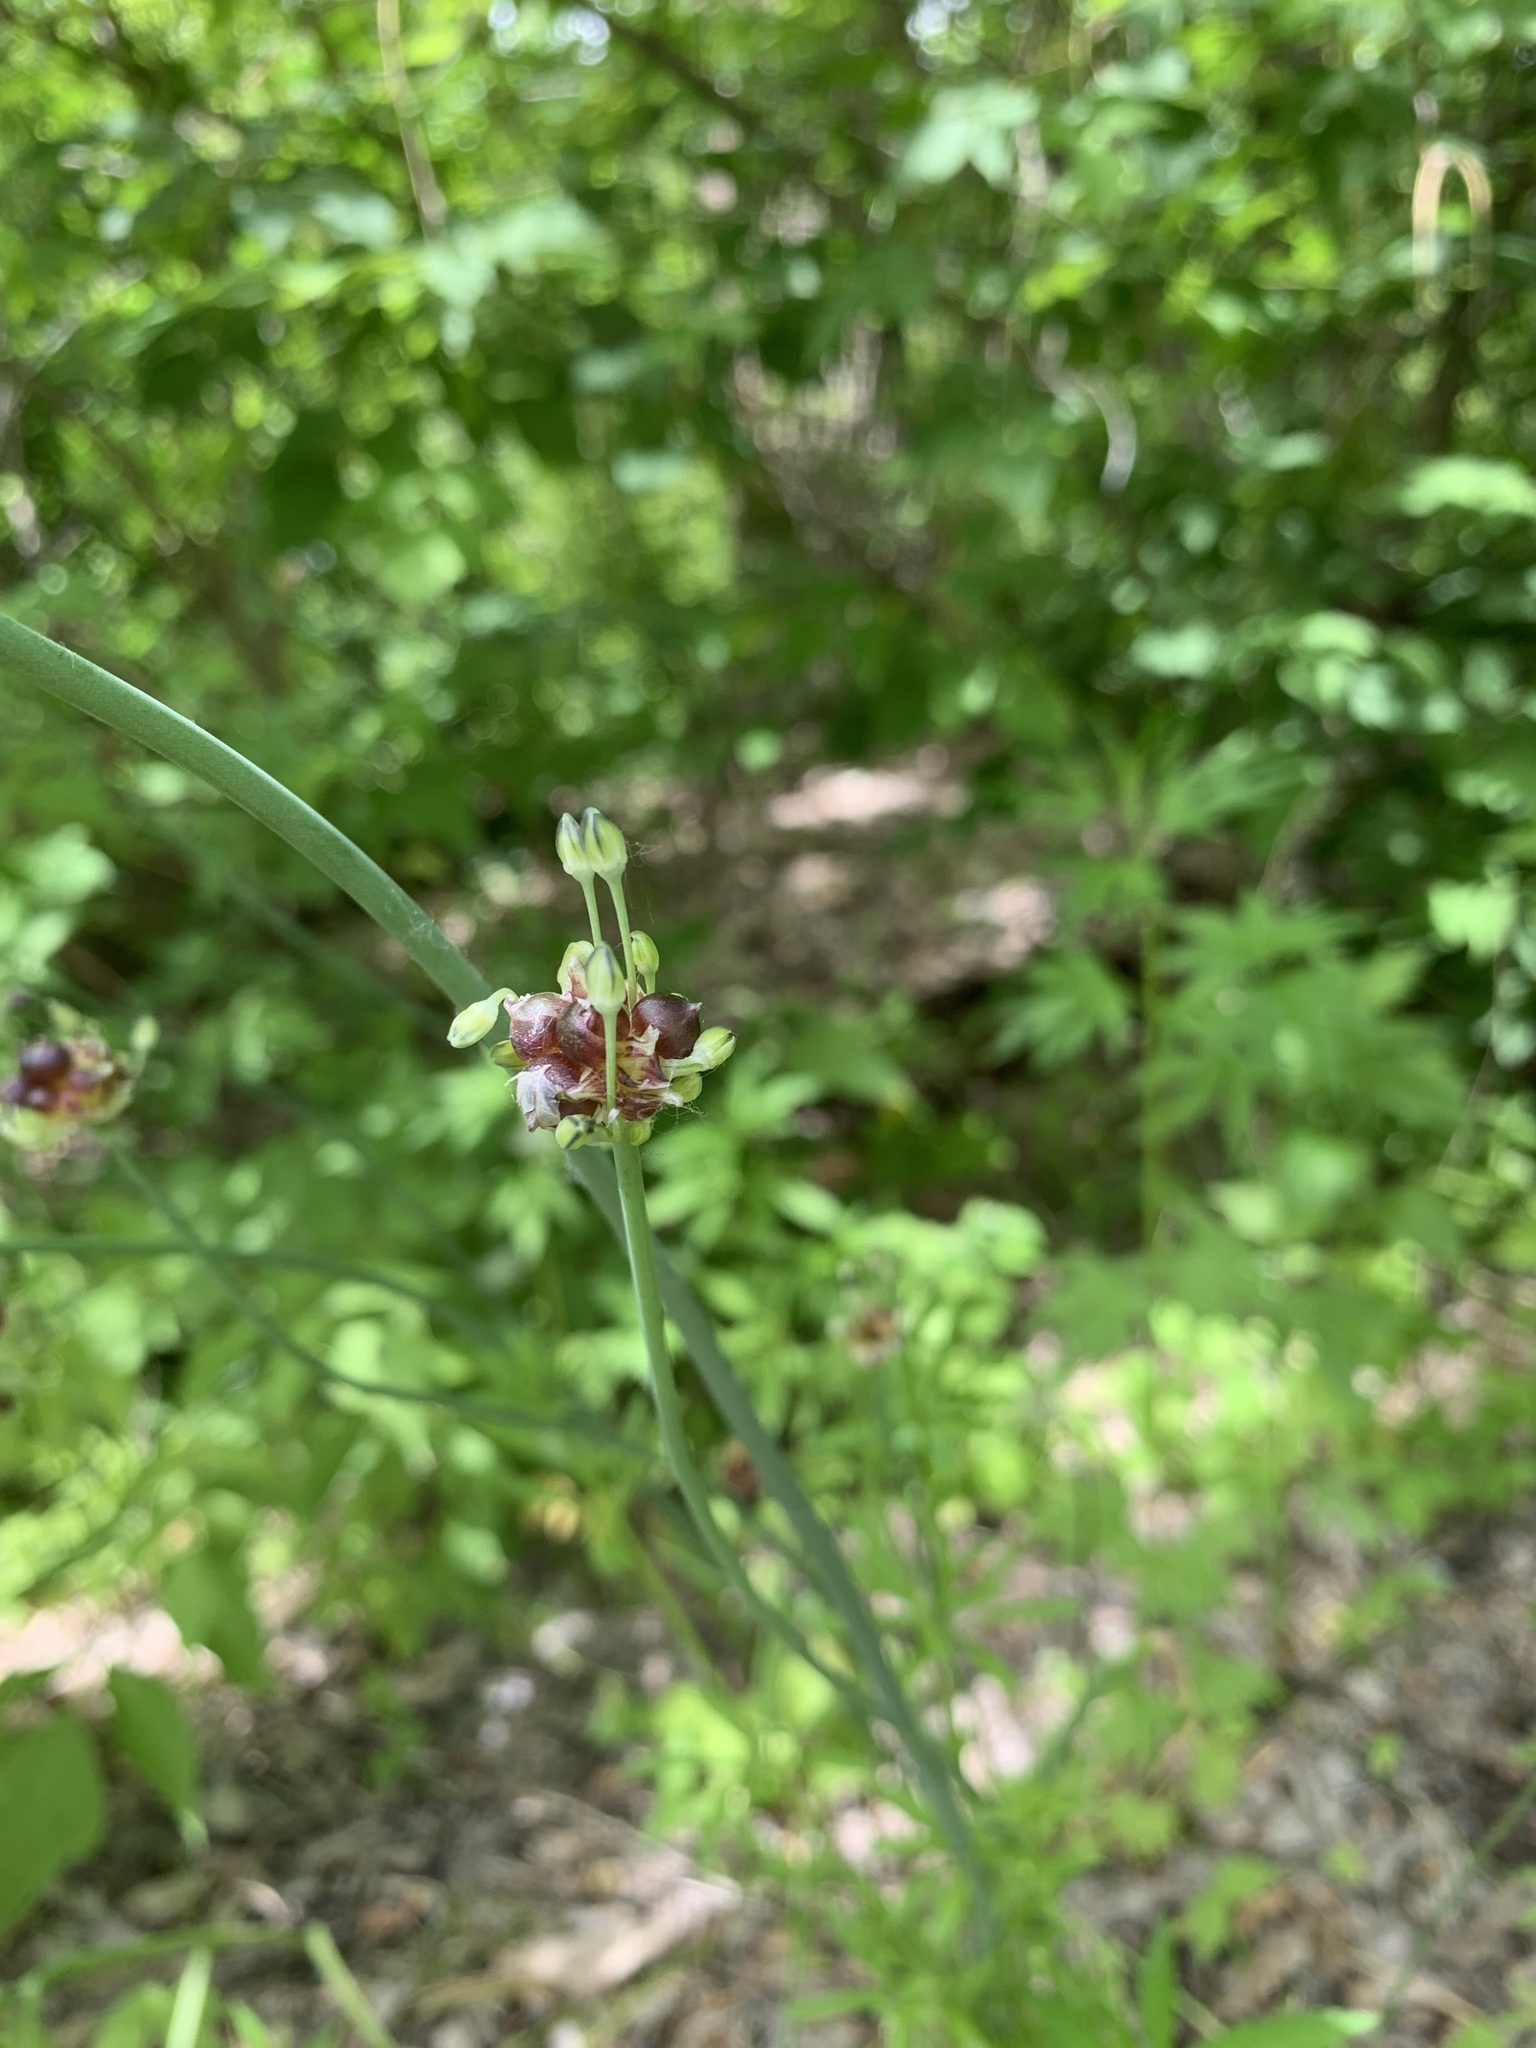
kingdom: Plantae
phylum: Tracheophyta
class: Liliopsida
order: Asparagales
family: Amaryllidaceae
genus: Allium
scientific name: Allium caeruleum
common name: Blue-of-the-heavens
